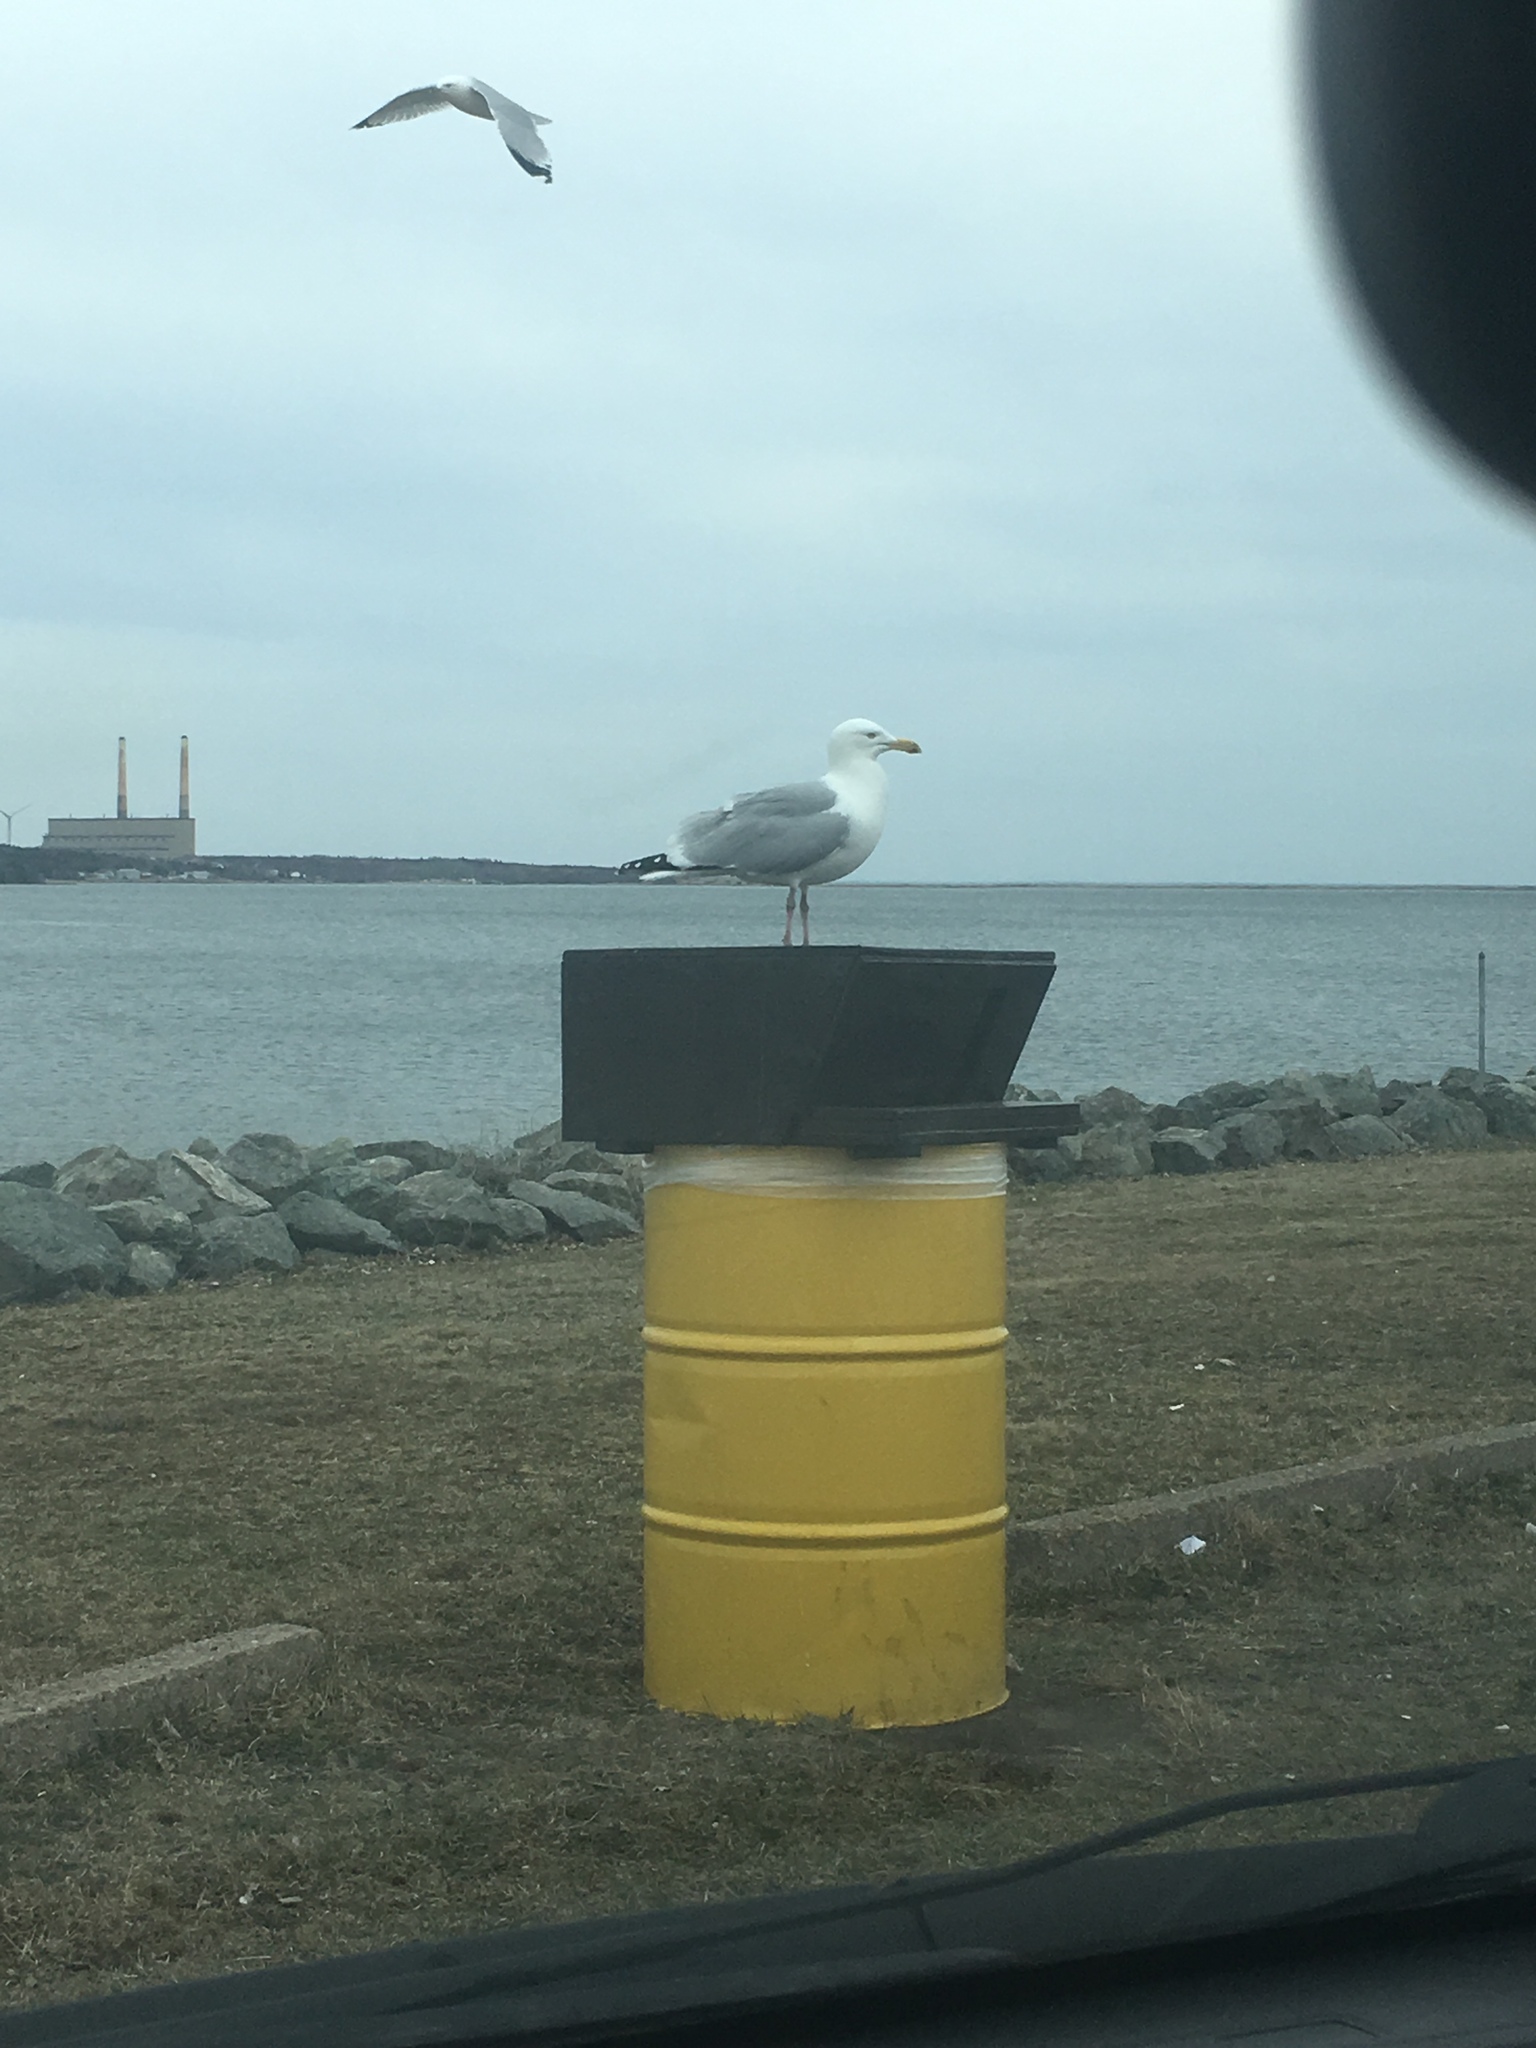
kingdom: Animalia
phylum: Chordata
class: Aves
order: Charadriiformes
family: Laridae
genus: Larus
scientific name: Larus argentatus
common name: Herring gull
